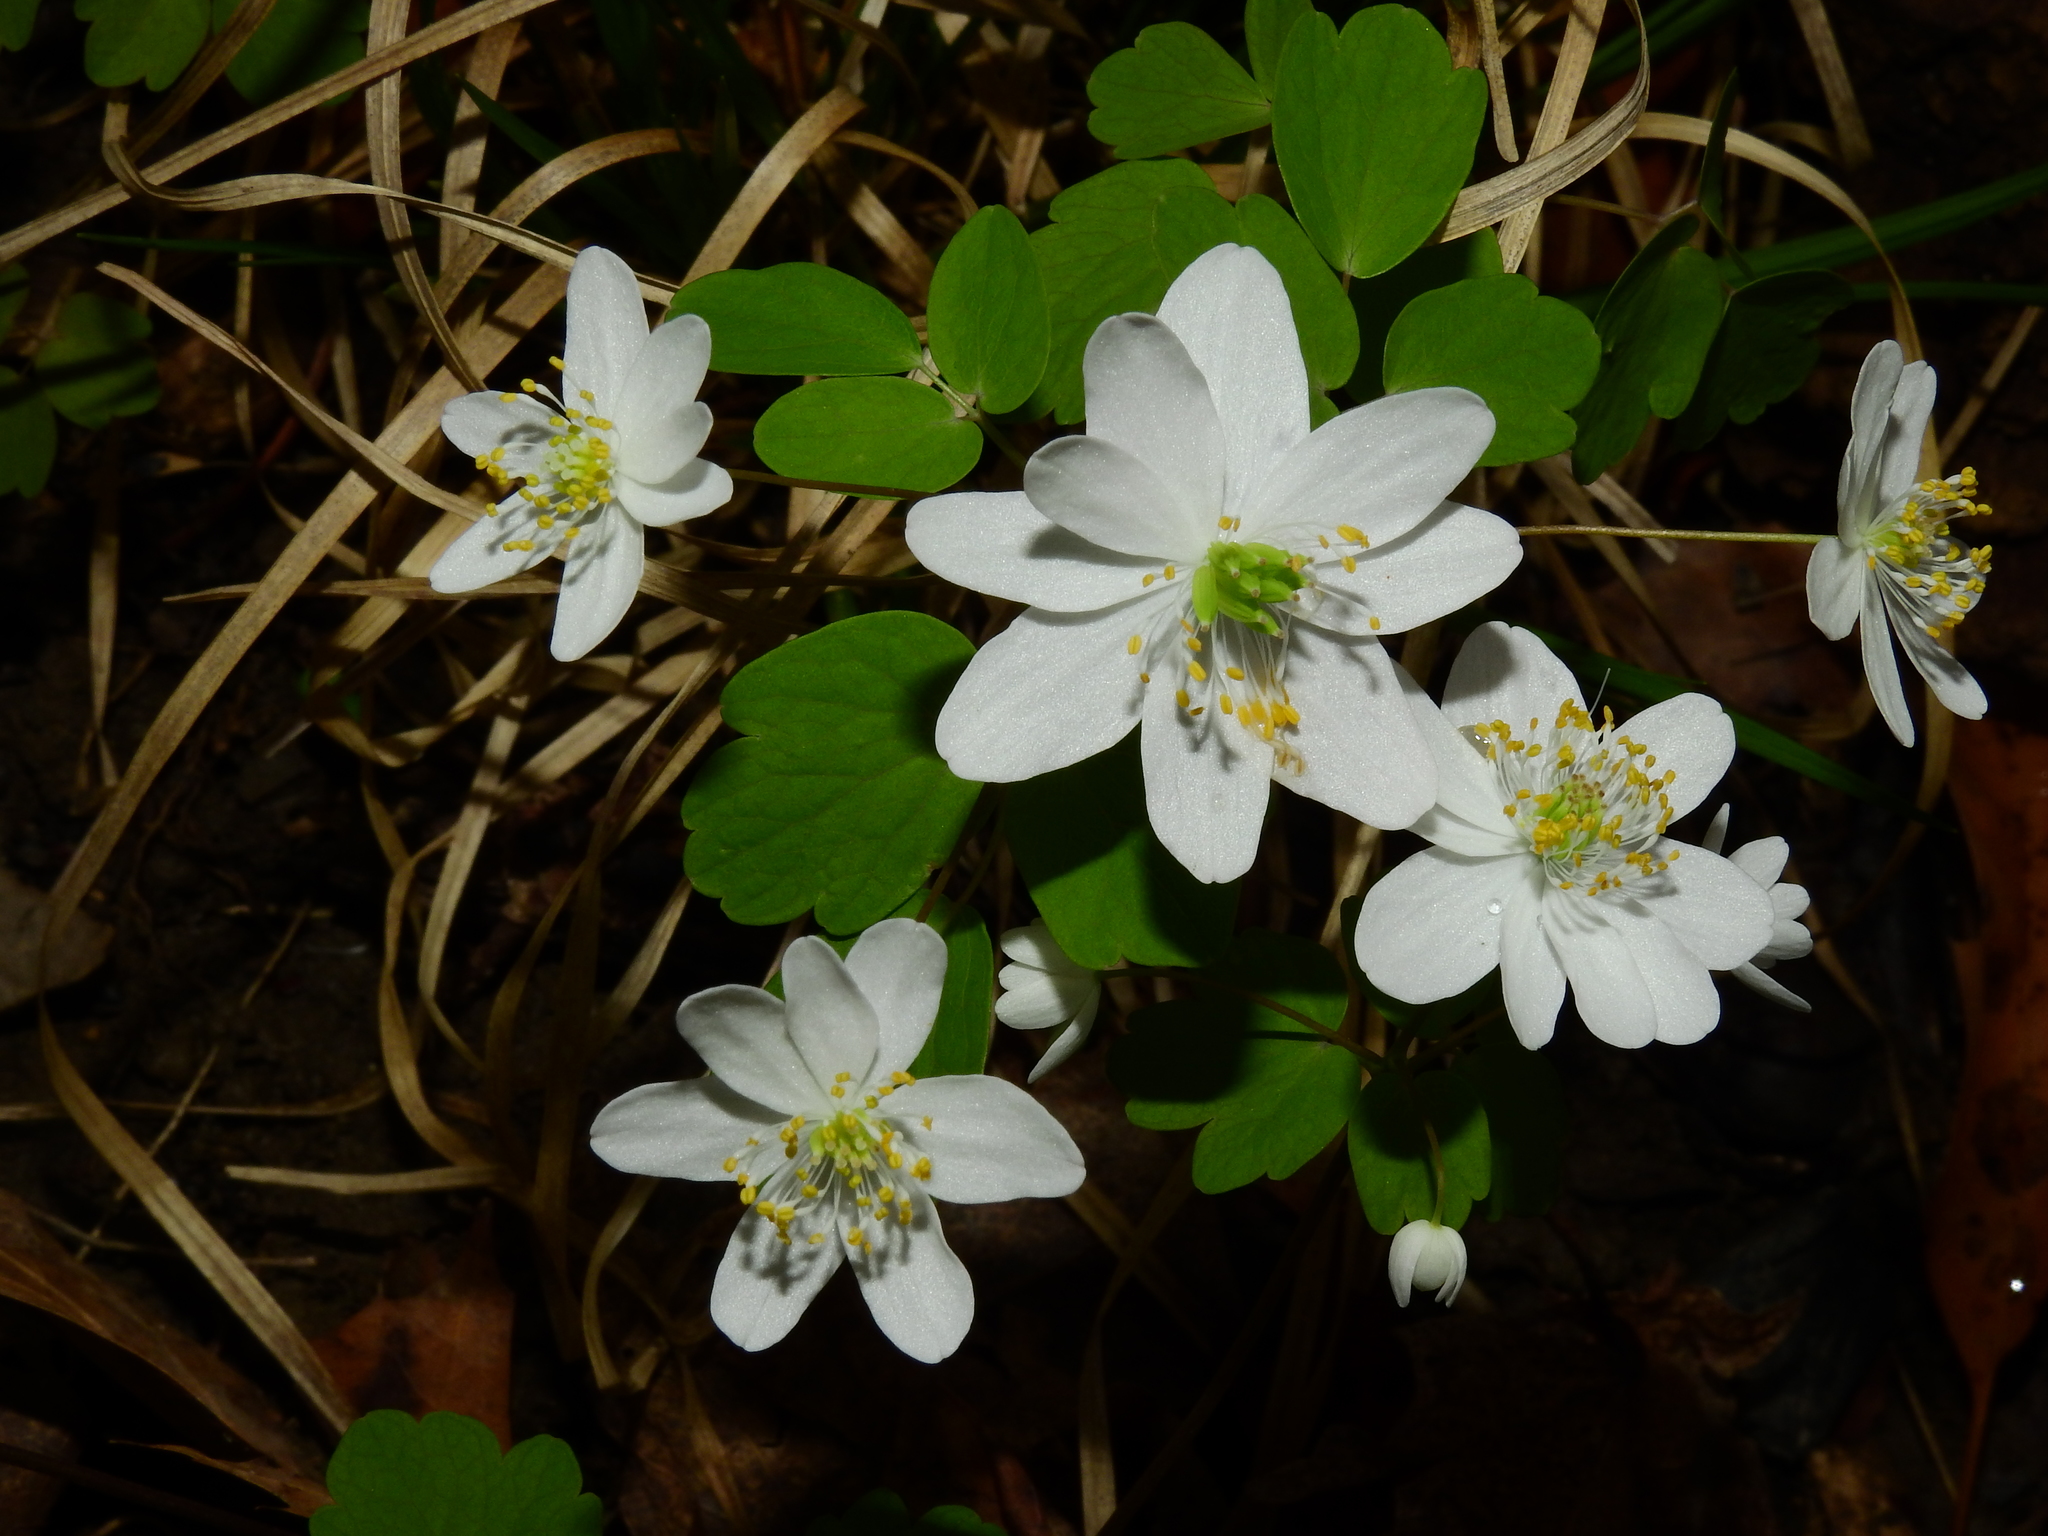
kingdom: Plantae
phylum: Tracheophyta
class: Magnoliopsida
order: Ranunculales
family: Ranunculaceae
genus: Thalictrum
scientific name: Thalictrum thalictroides
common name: Rue-anemone
